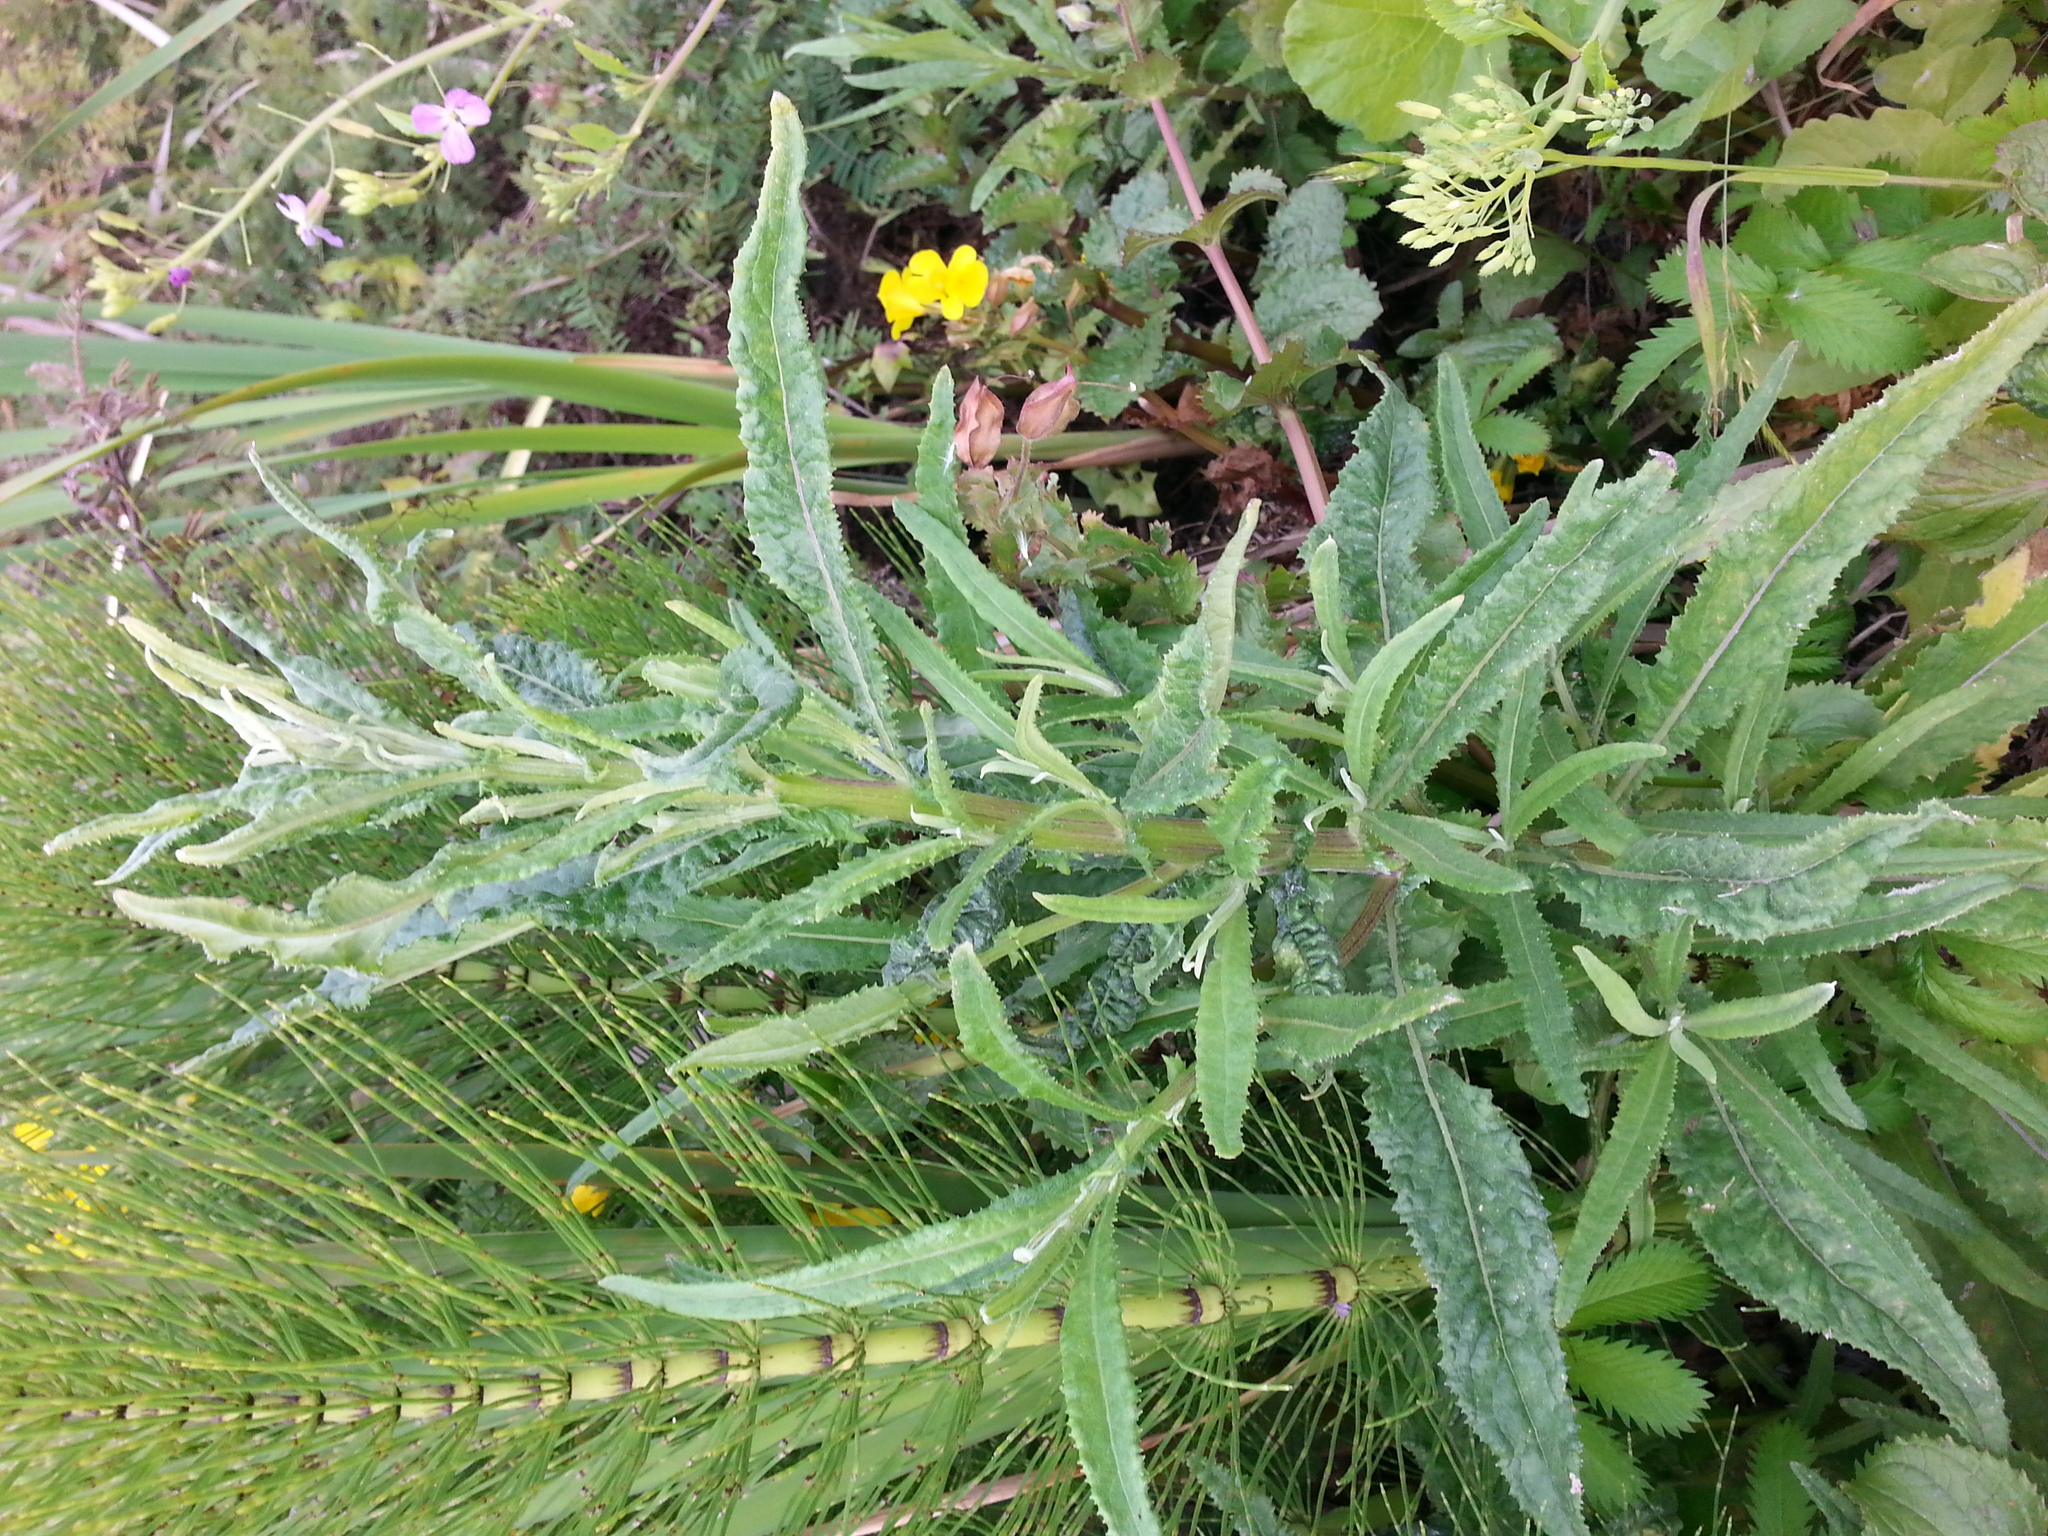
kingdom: Plantae
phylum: Tracheophyta
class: Magnoliopsida
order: Asterales
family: Asteraceae
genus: Senecio
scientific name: Senecio minimus
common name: Toothed fireweed
